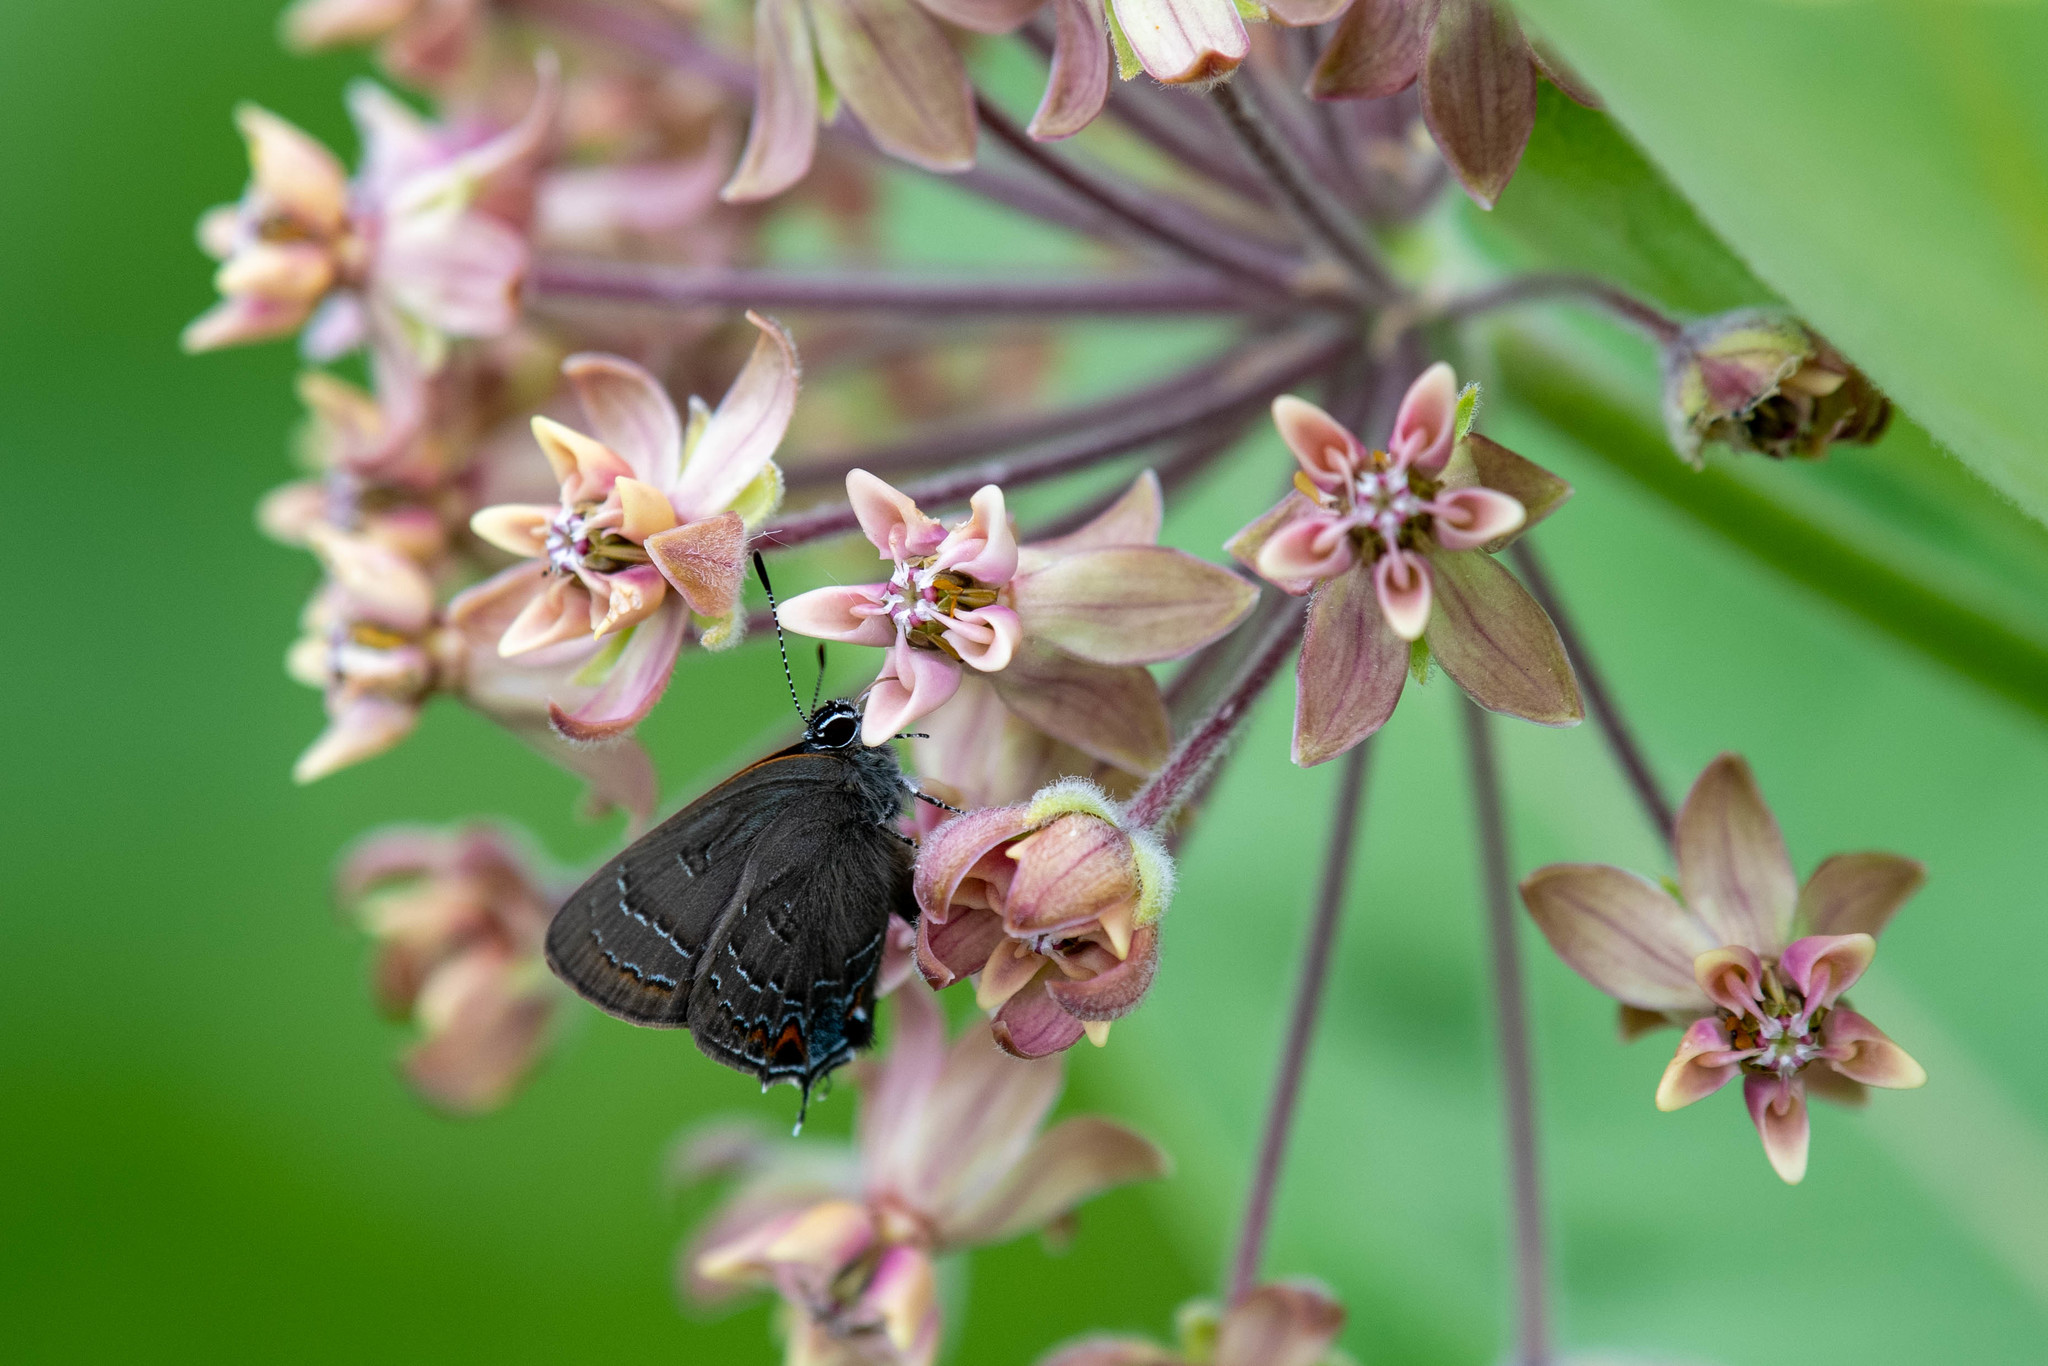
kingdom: Animalia
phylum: Arthropoda
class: Insecta
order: Lepidoptera
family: Lycaenidae
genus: Satyrium
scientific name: Satyrium calanus
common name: Banded hairstreak
